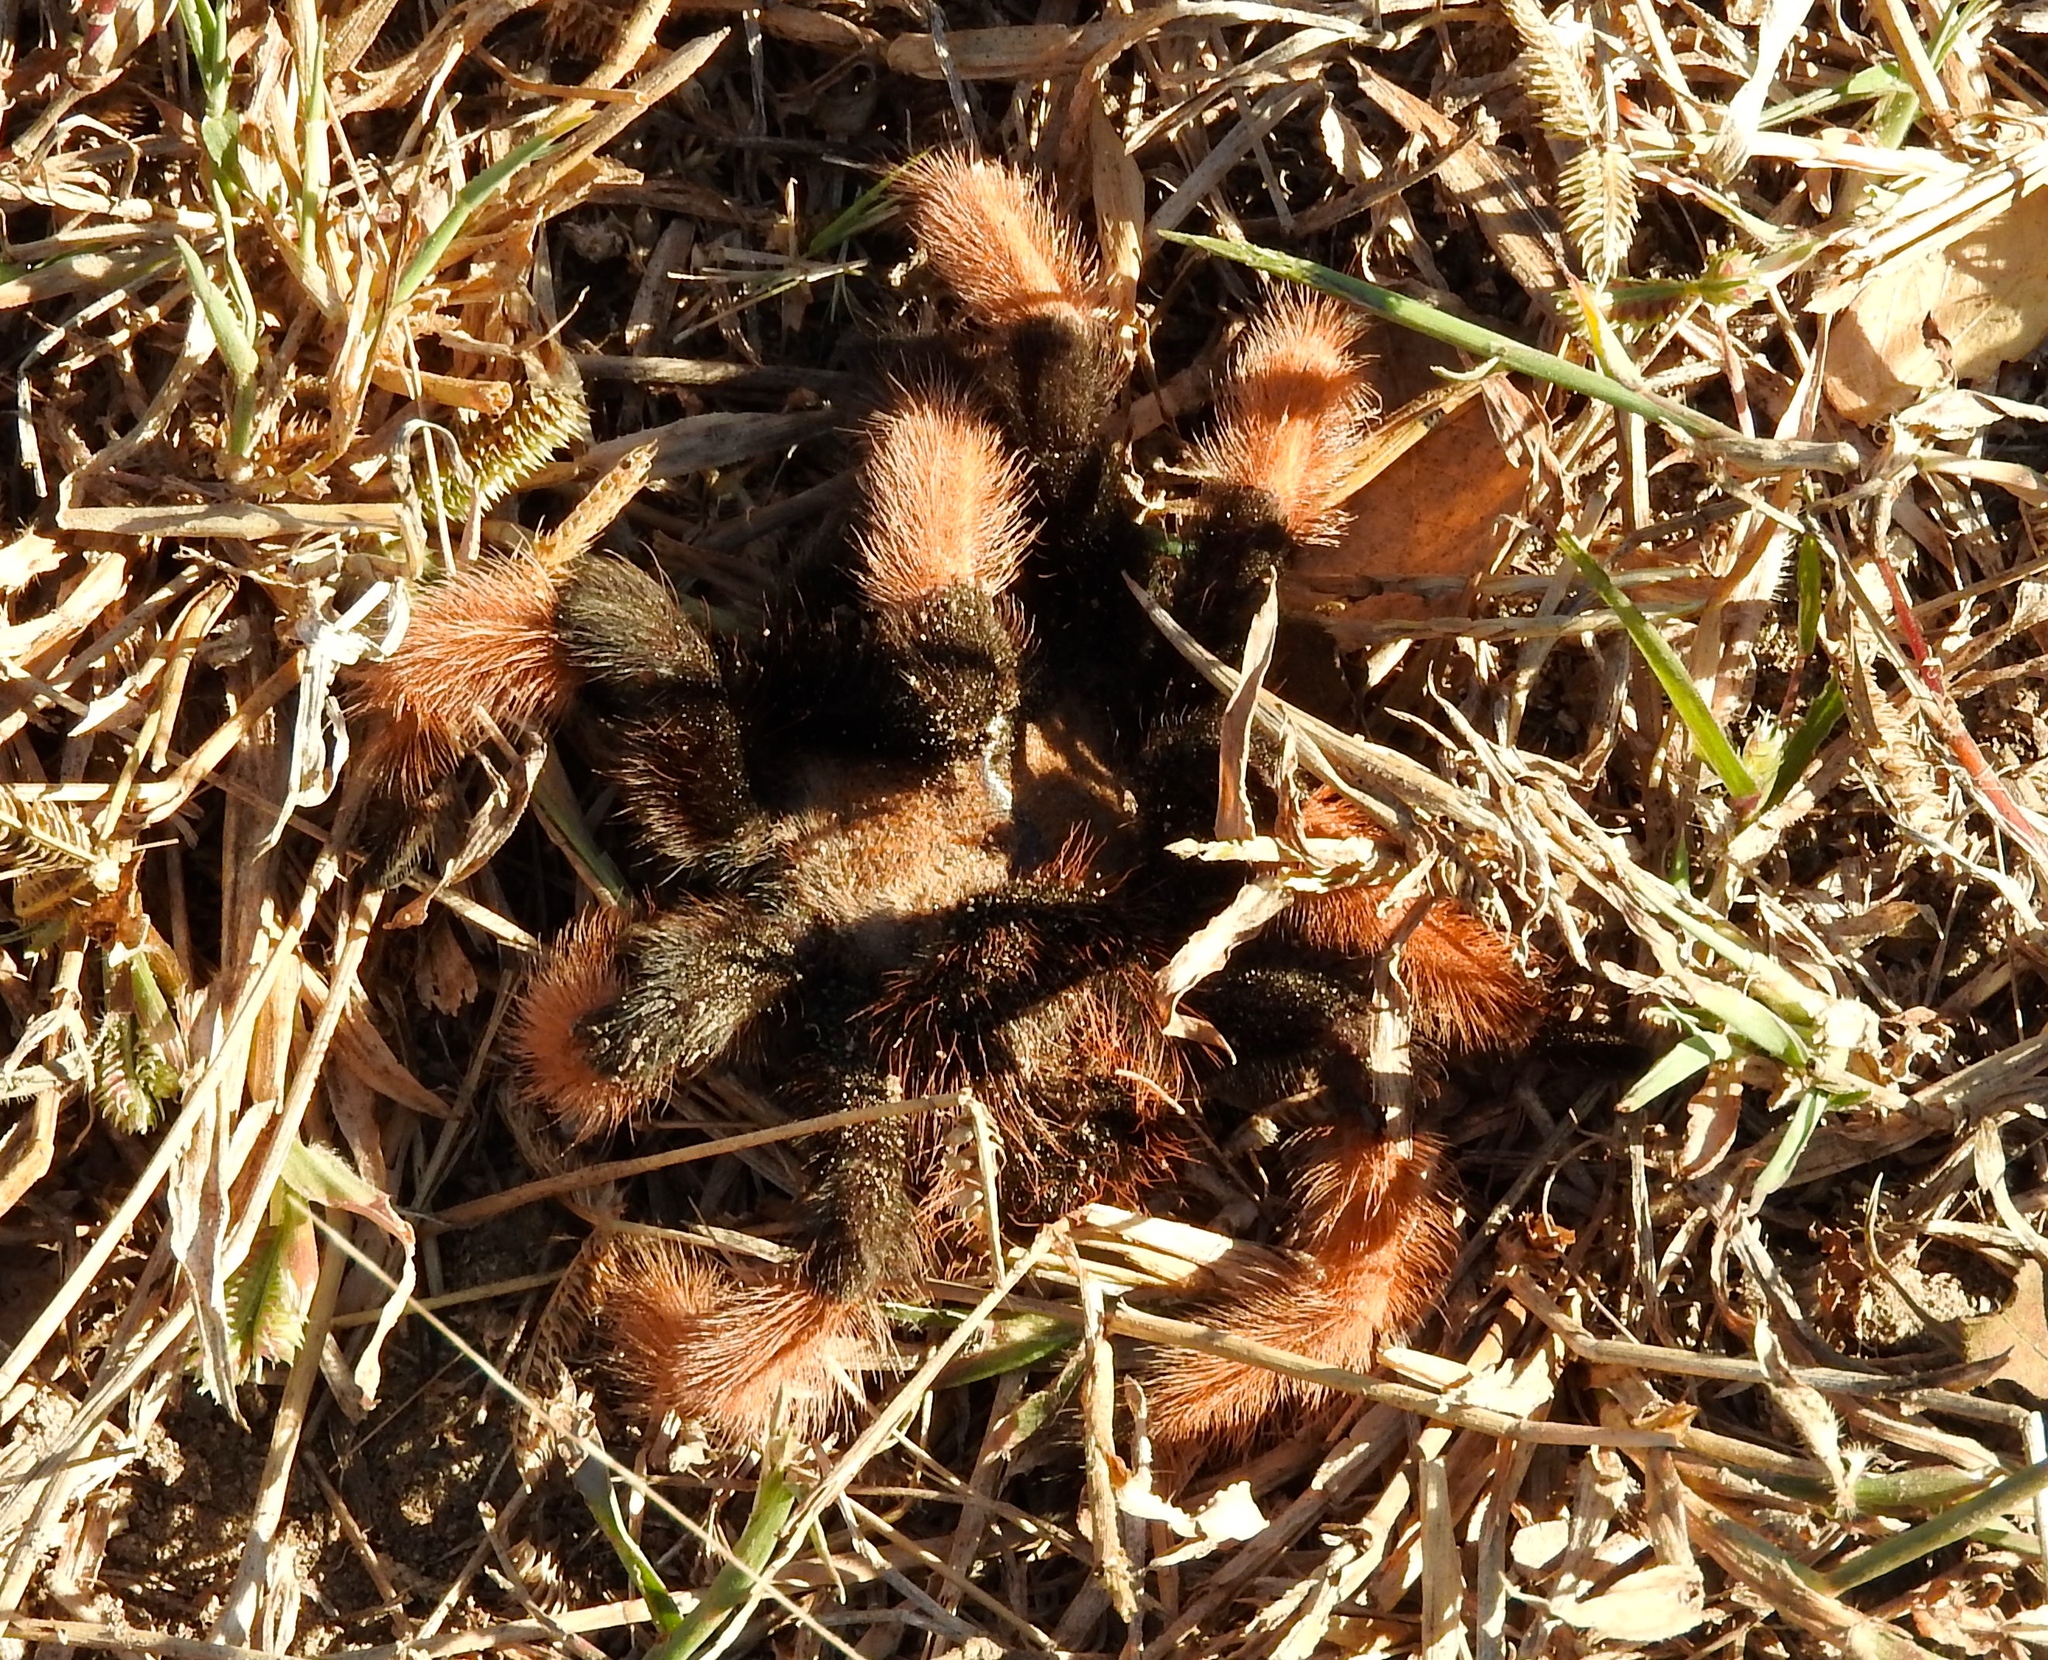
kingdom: Animalia
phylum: Arthropoda
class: Arachnida
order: Araneae
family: Theraphosidae
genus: Brachypelma
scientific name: Brachypelma emilia
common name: Mexican redleg
